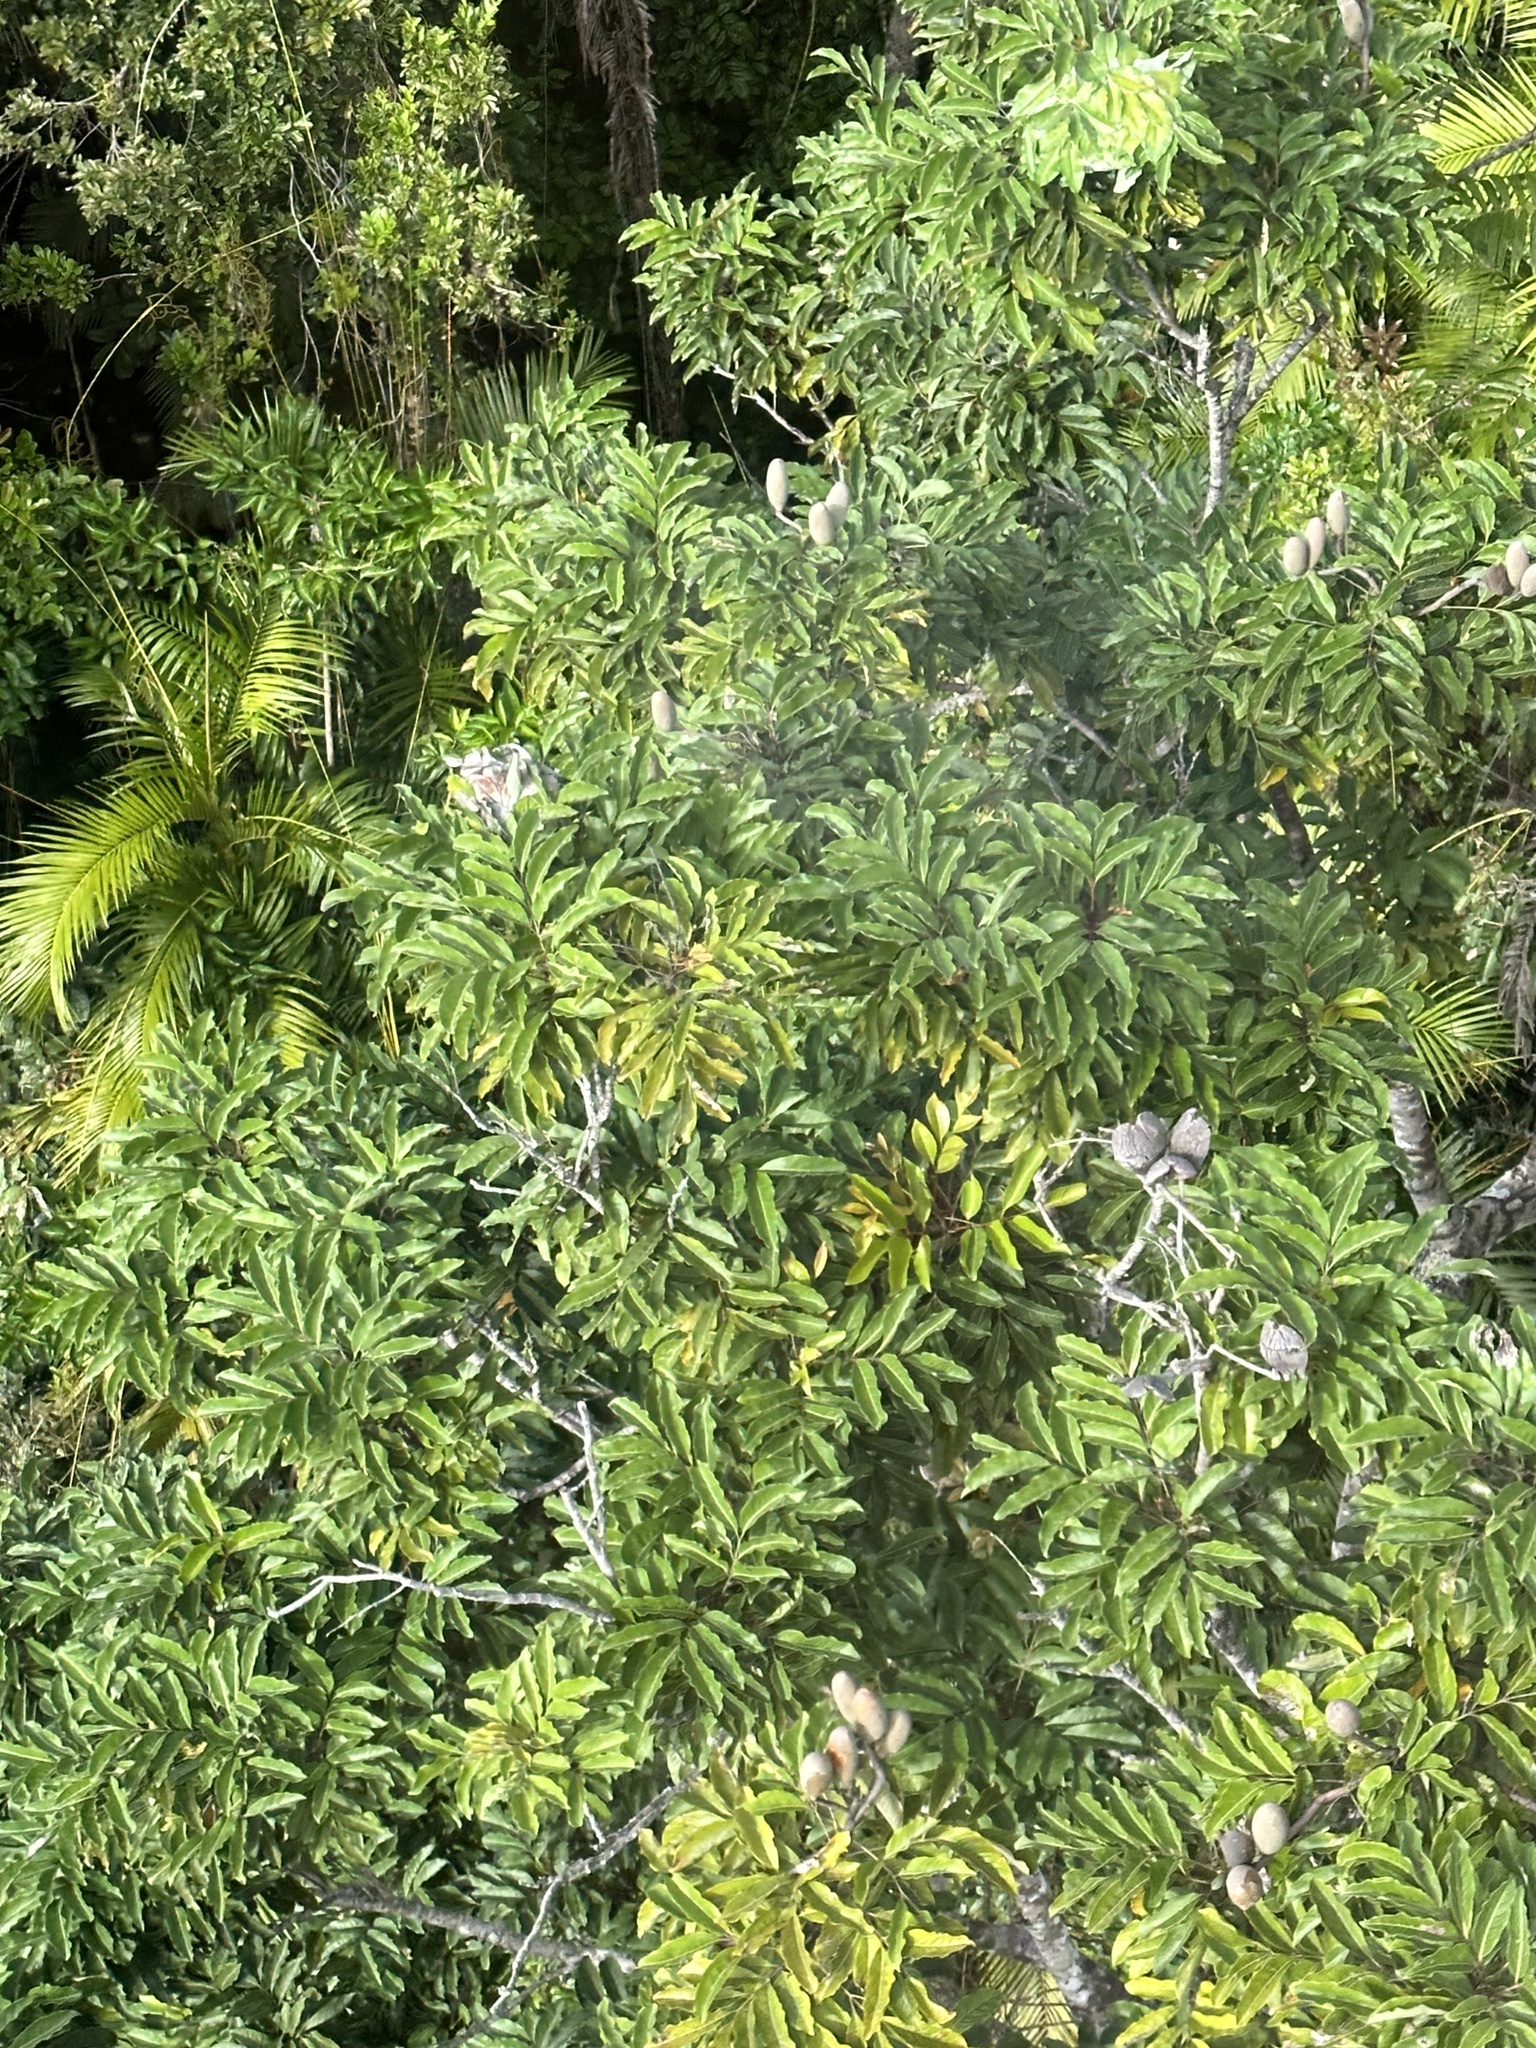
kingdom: Plantae
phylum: Tracheophyta
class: Magnoliopsida
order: Proteales
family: Proteaceae
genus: Cardwellia
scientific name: Cardwellia sublimis
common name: Bull oak
